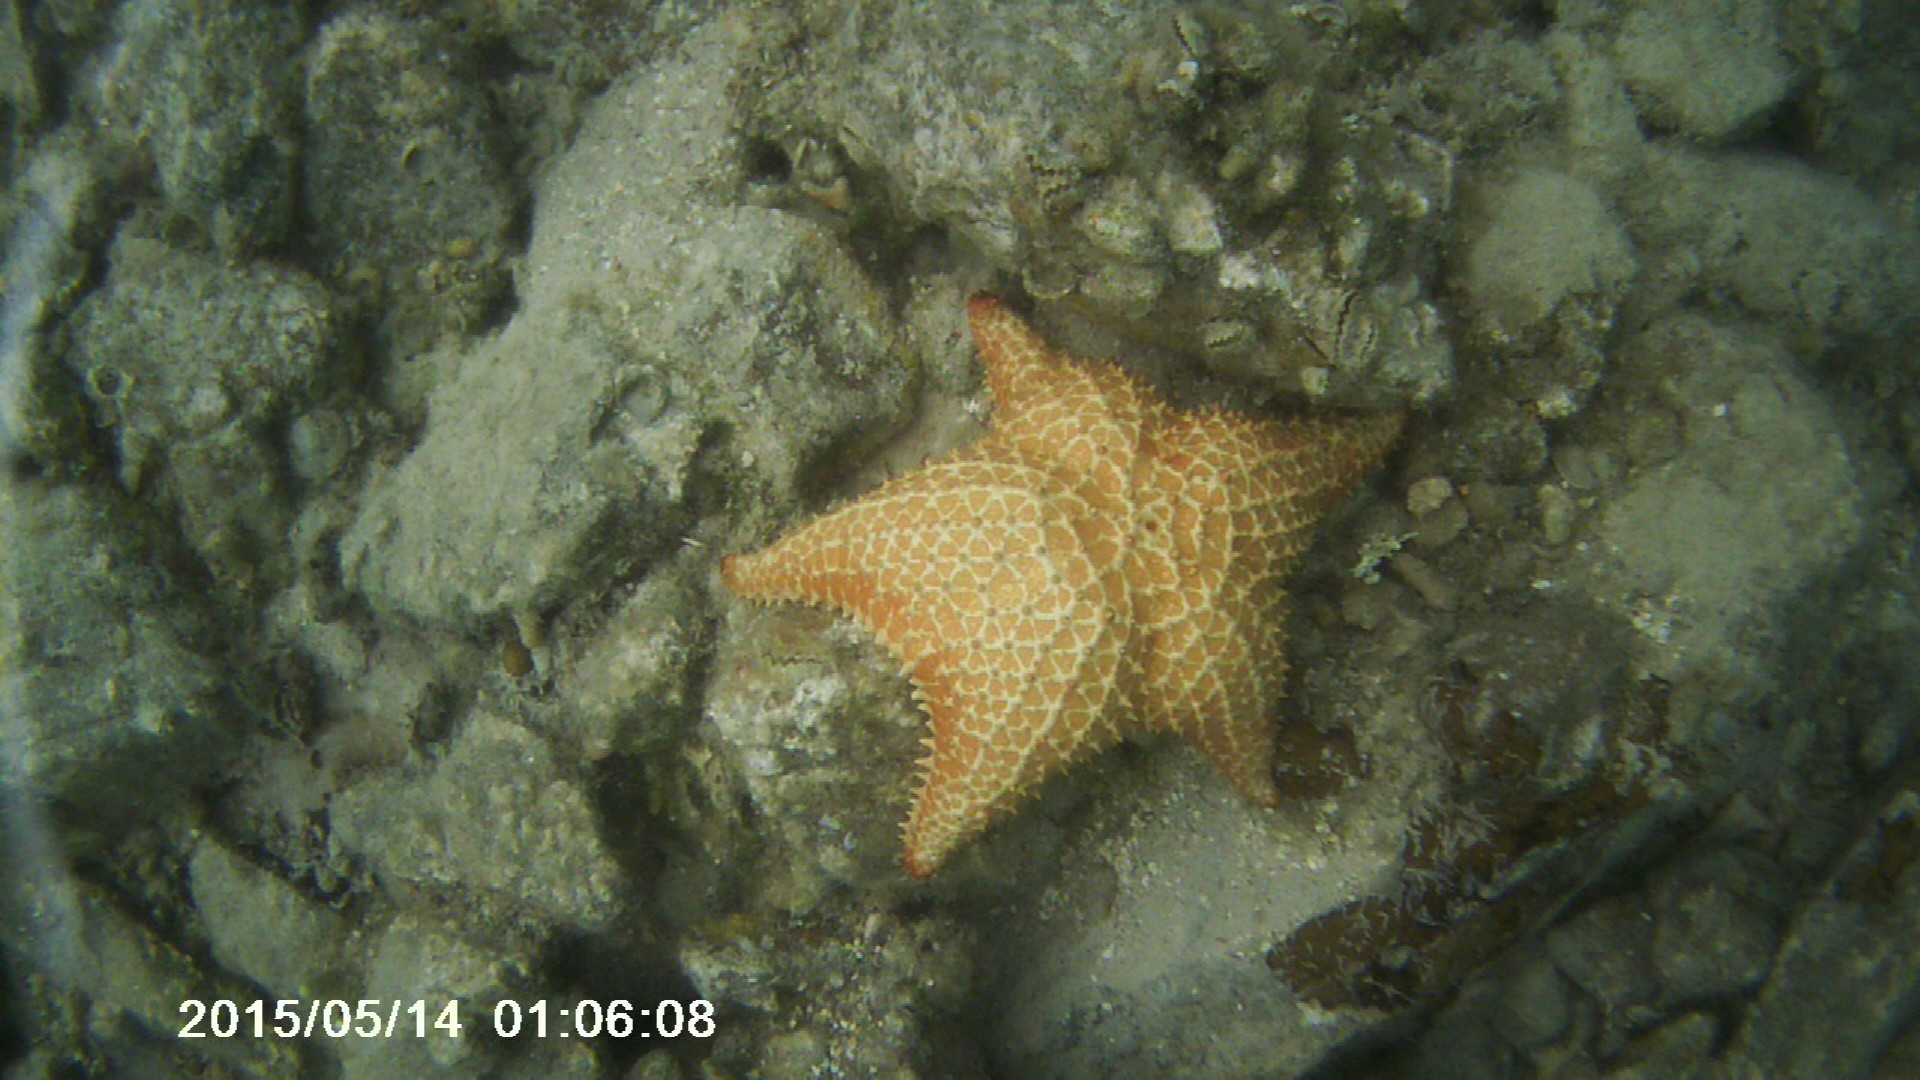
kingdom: Animalia
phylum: Echinodermata
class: Asteroidea
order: Valvatida
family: Oreasteridae
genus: Oreaster
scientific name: Oreaster reticulatus
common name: Cushion sea star
